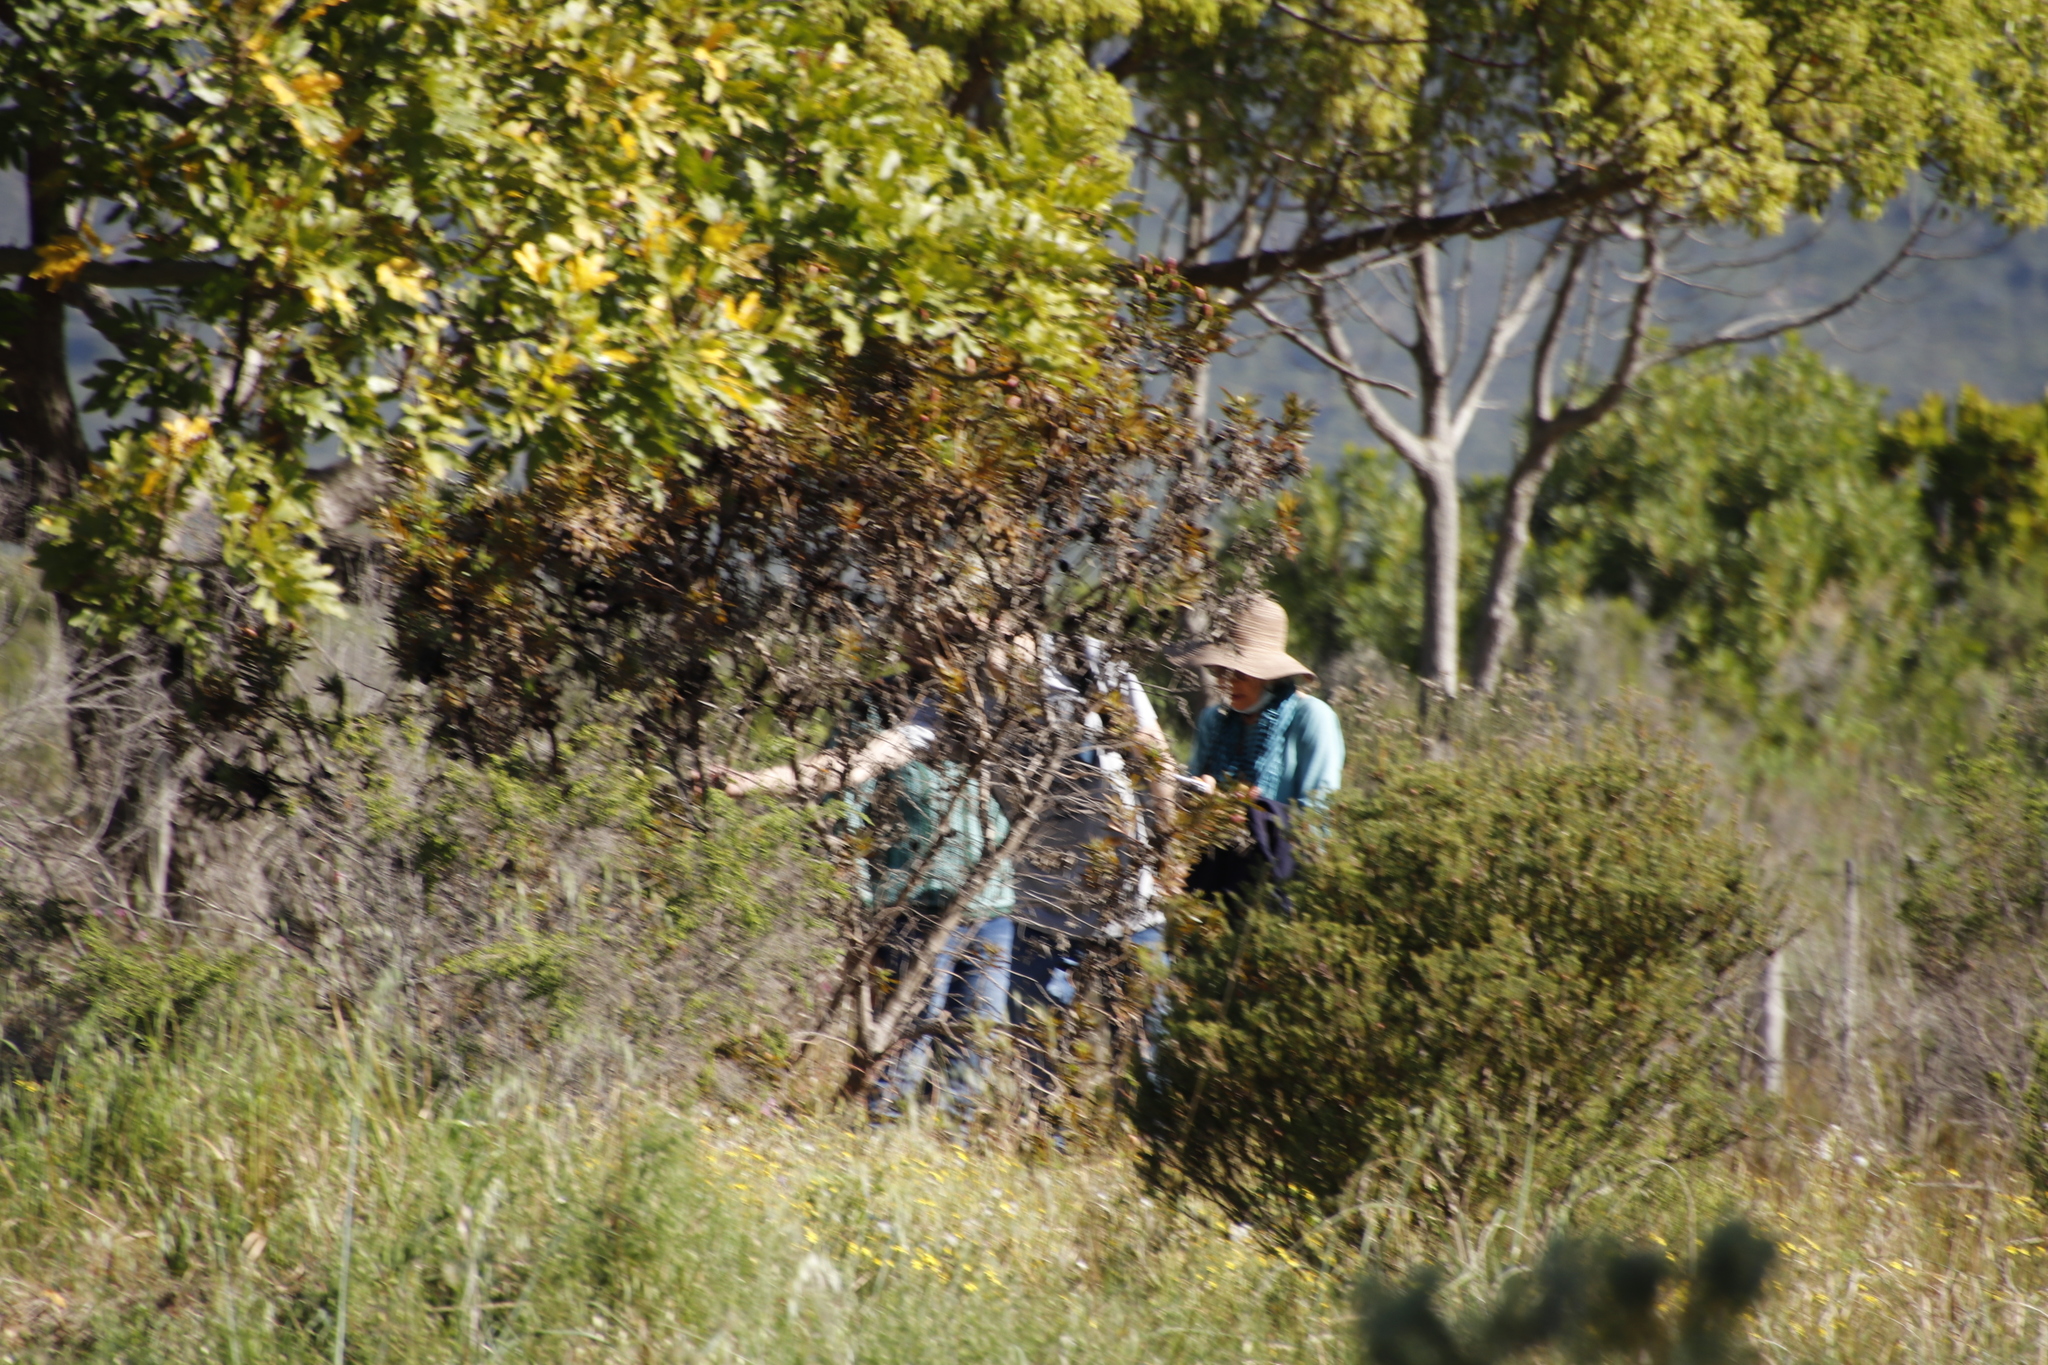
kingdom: Plantae
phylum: Tracheophyta
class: Magnoliopsida
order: Proteales
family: Proteaceae
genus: Leucadendron
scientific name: Leucadendron levisanus
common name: Cape flats conebush
